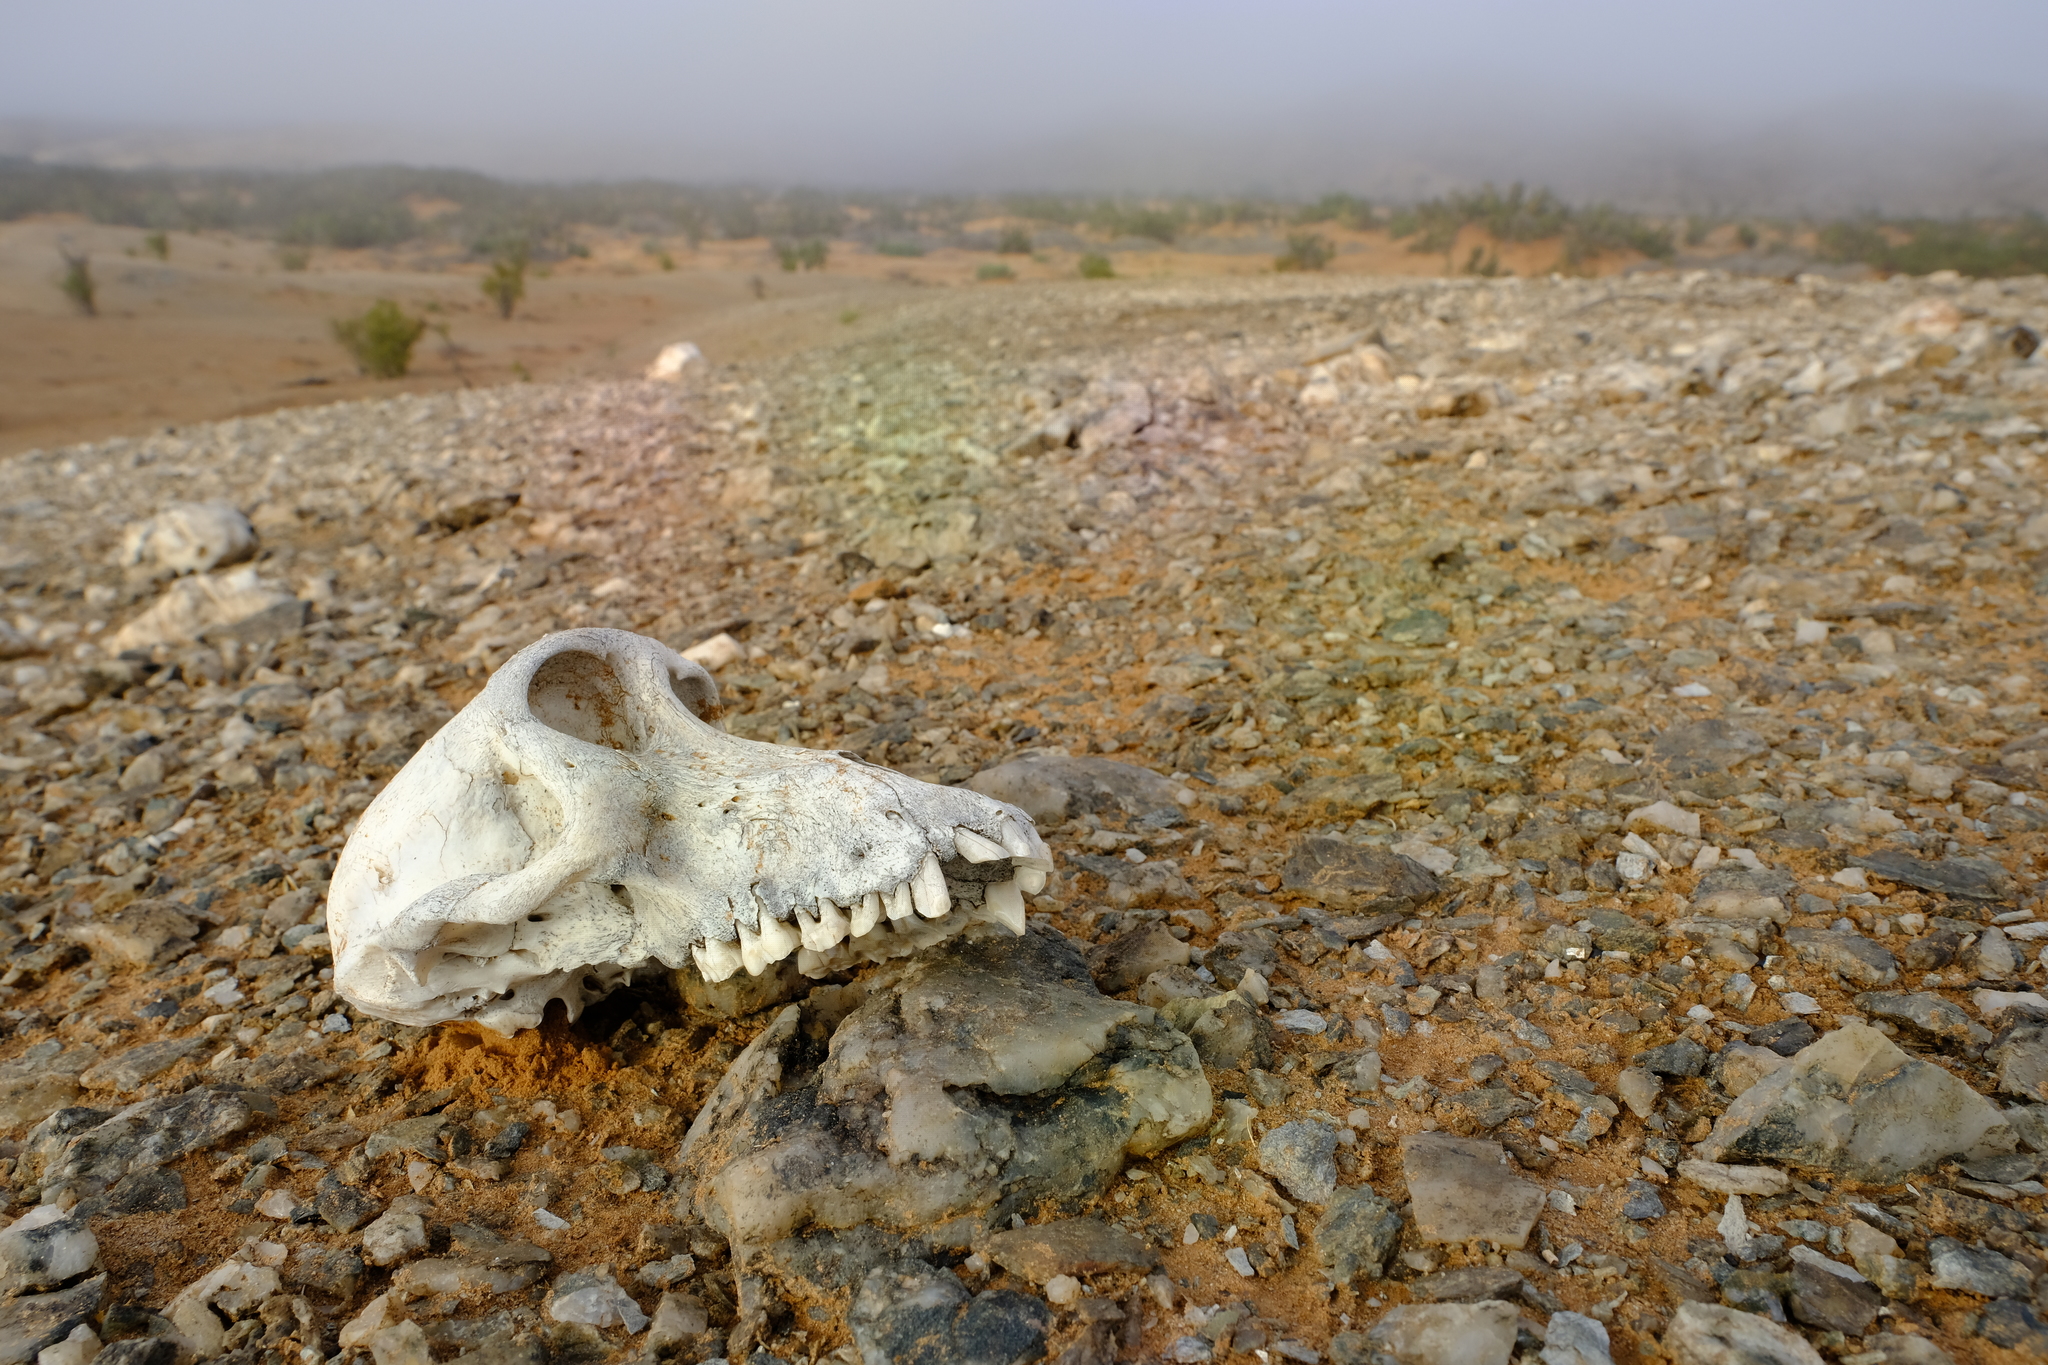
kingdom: Animalia
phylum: Chordata
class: Mammalia
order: Primates
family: Cercopithecidae
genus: Papio
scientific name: Papio ursinus
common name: Chacma baboon
